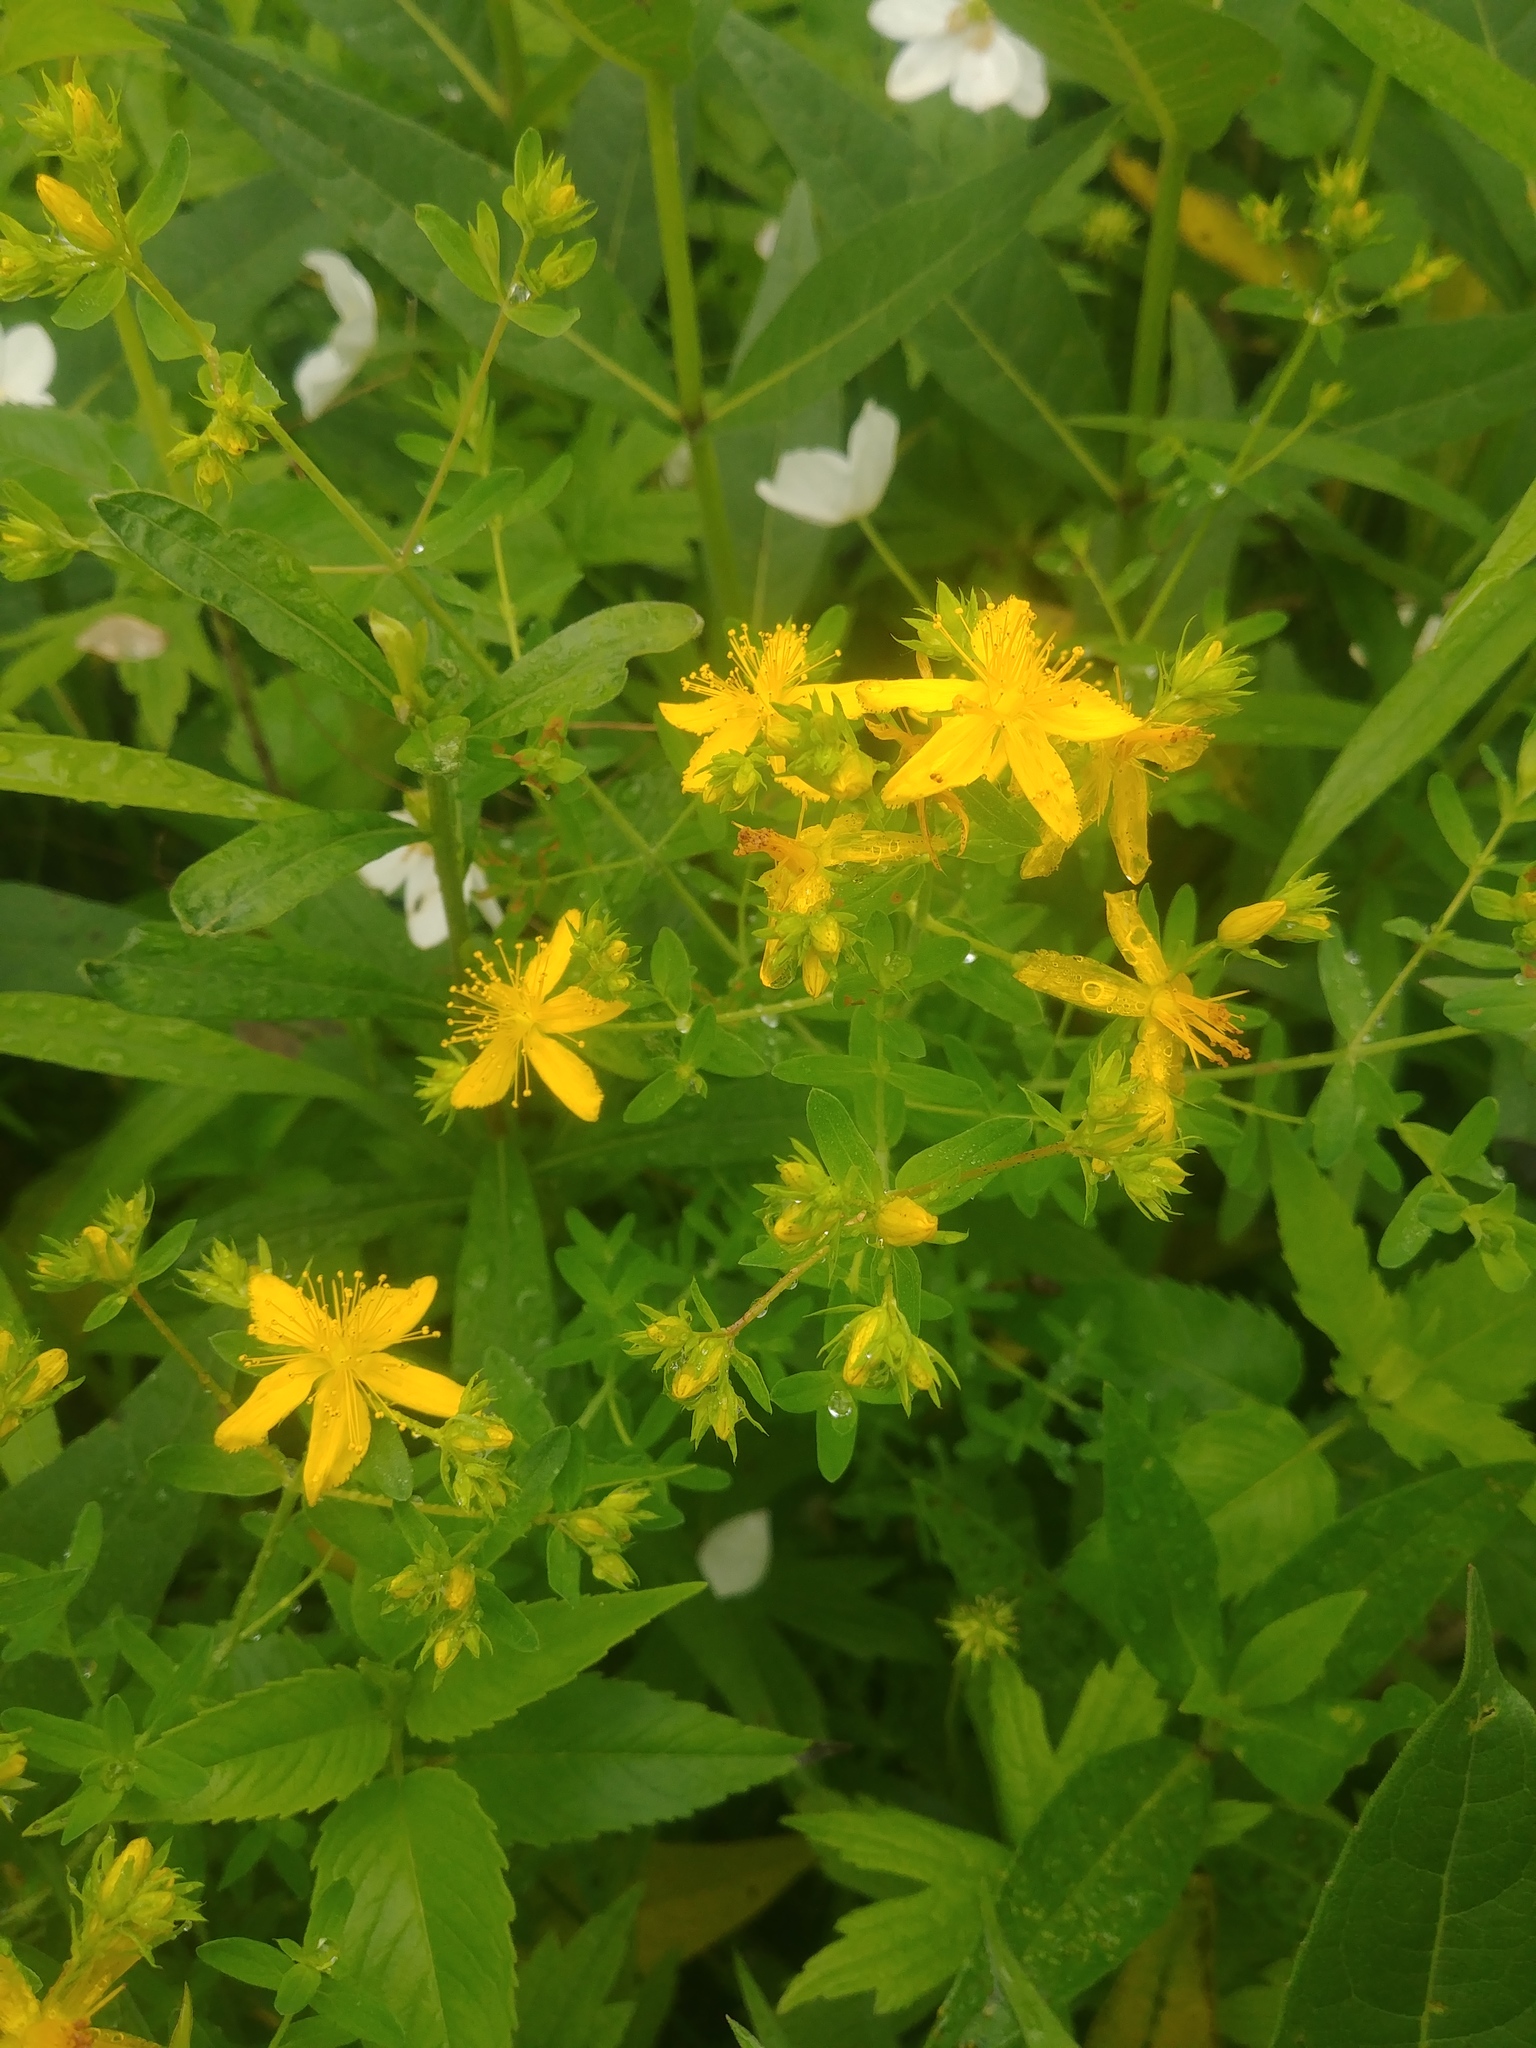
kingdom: Plantae
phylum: Tracheophyta
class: Magnoliopsida
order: Malpighiales
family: Hypericaceae
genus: Hypericum
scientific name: Hypericum perforatum
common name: Common st. johnswort
